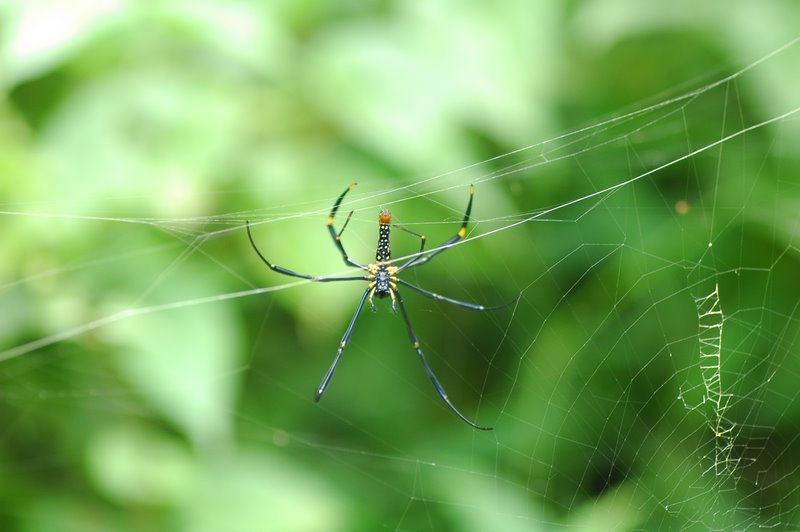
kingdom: Animalia
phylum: Arthropoda
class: Arachnida
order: Araneae
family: Araneidae
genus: Nephila
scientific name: Nephila pilipes
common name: Giant golden orb weaver
